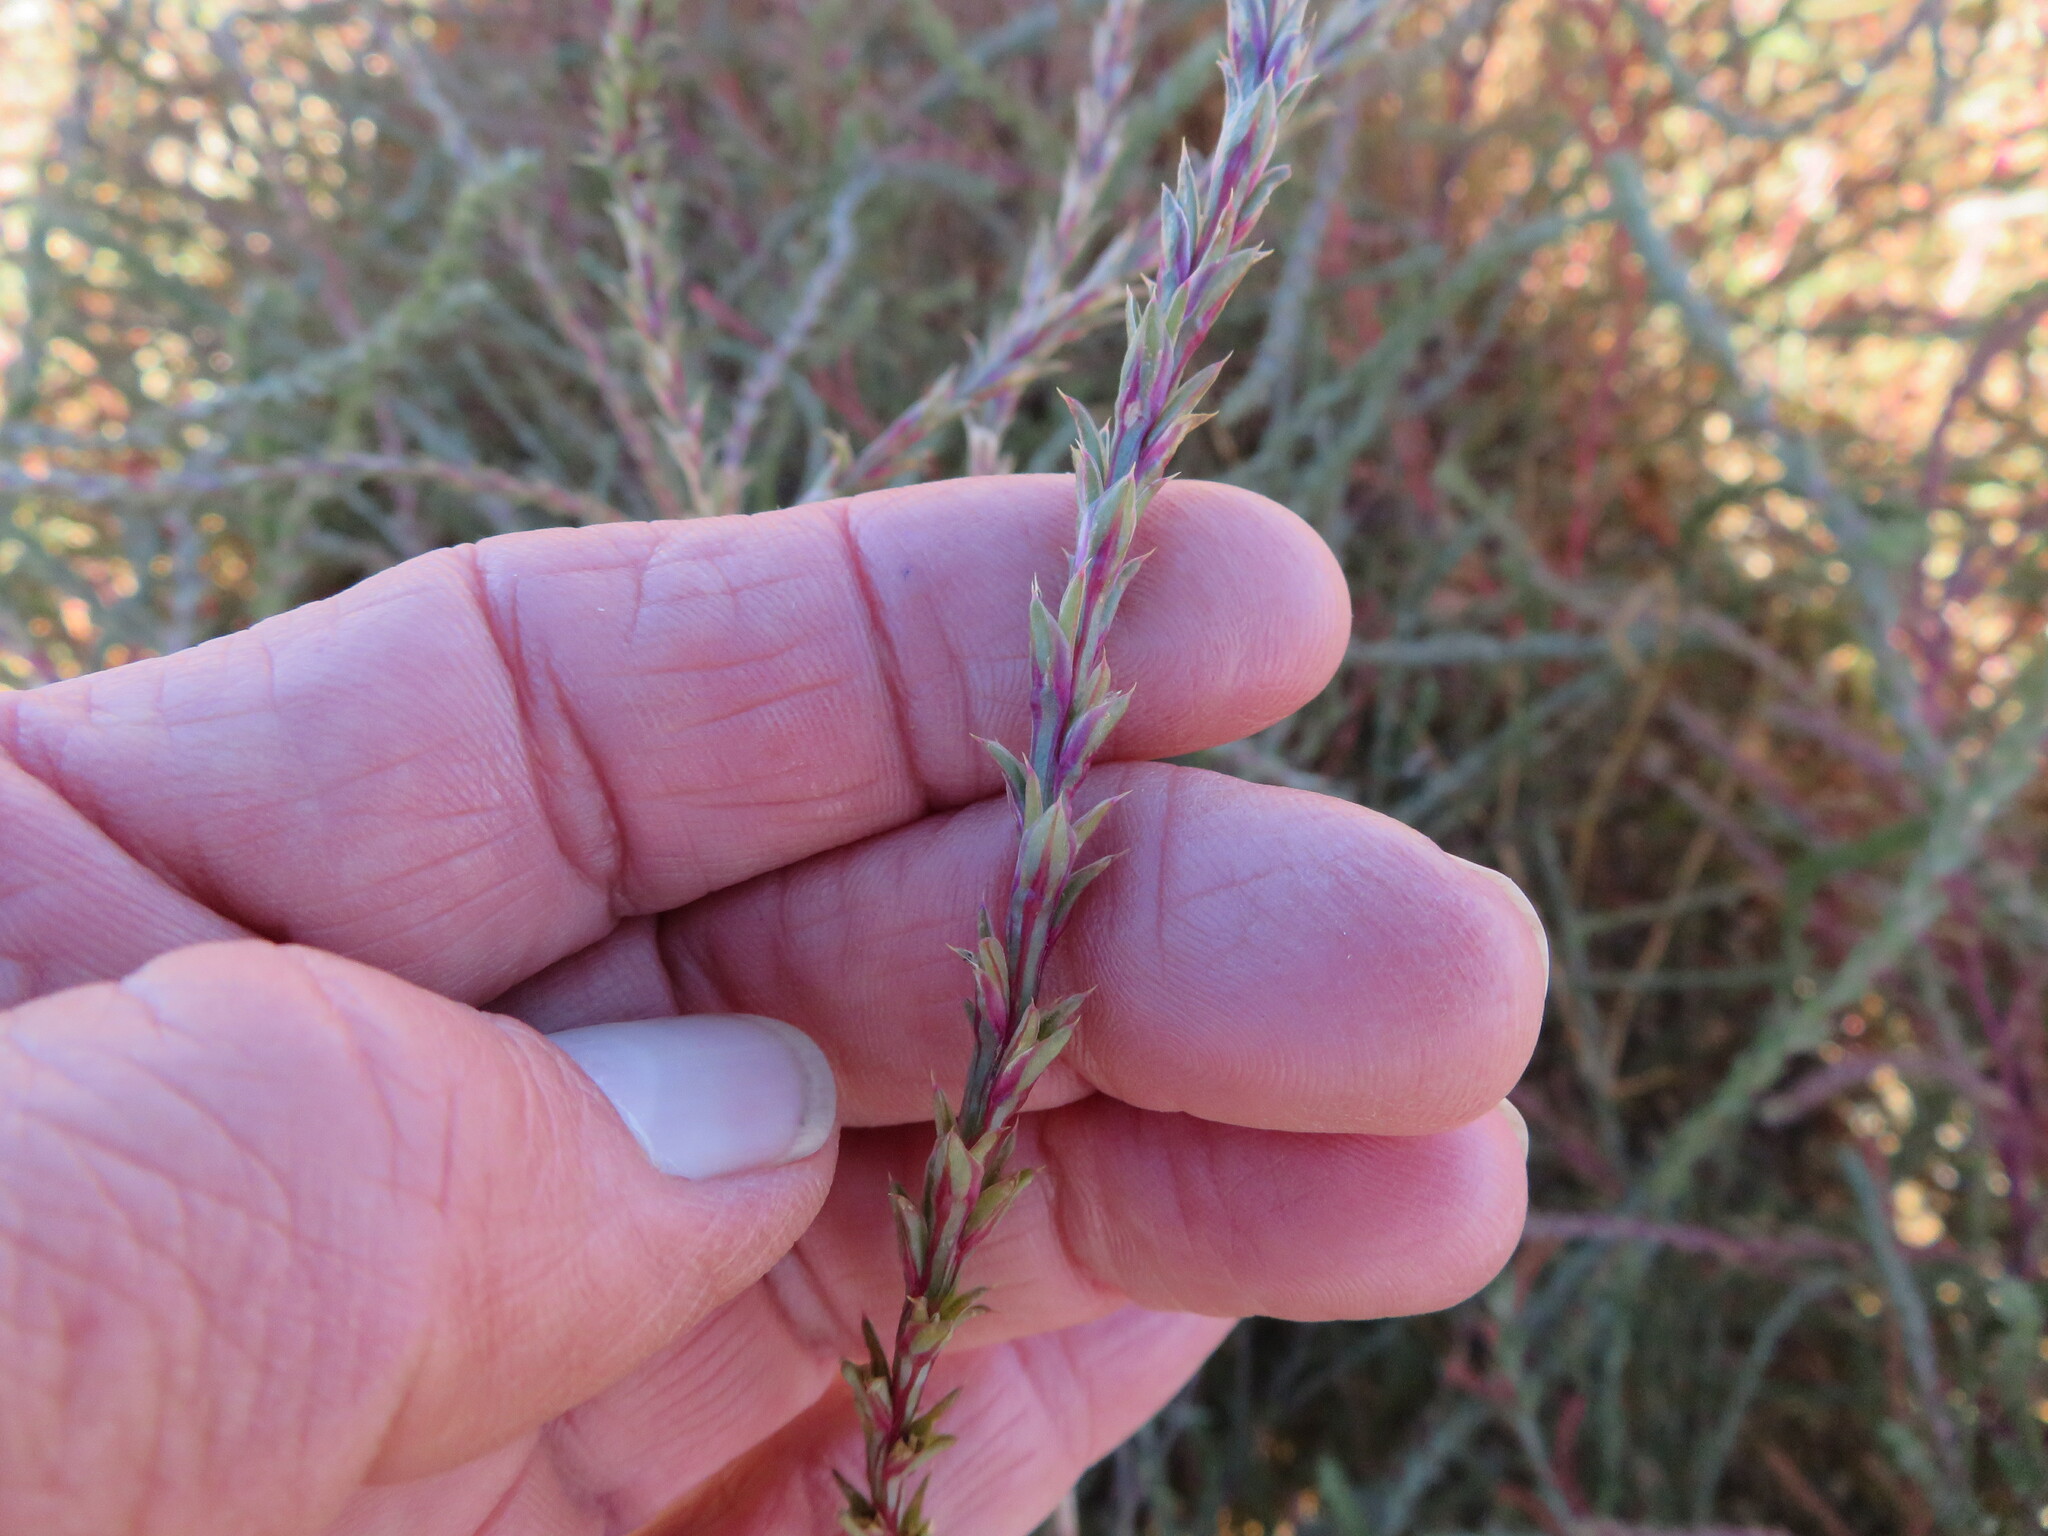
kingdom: Plantae
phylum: Tracheophyta
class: Magnoliopsida
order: Asterales
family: Asteraceae
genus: Cyclachaena
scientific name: Cyclachaena xanthiifolia
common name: Giant sumpweed
